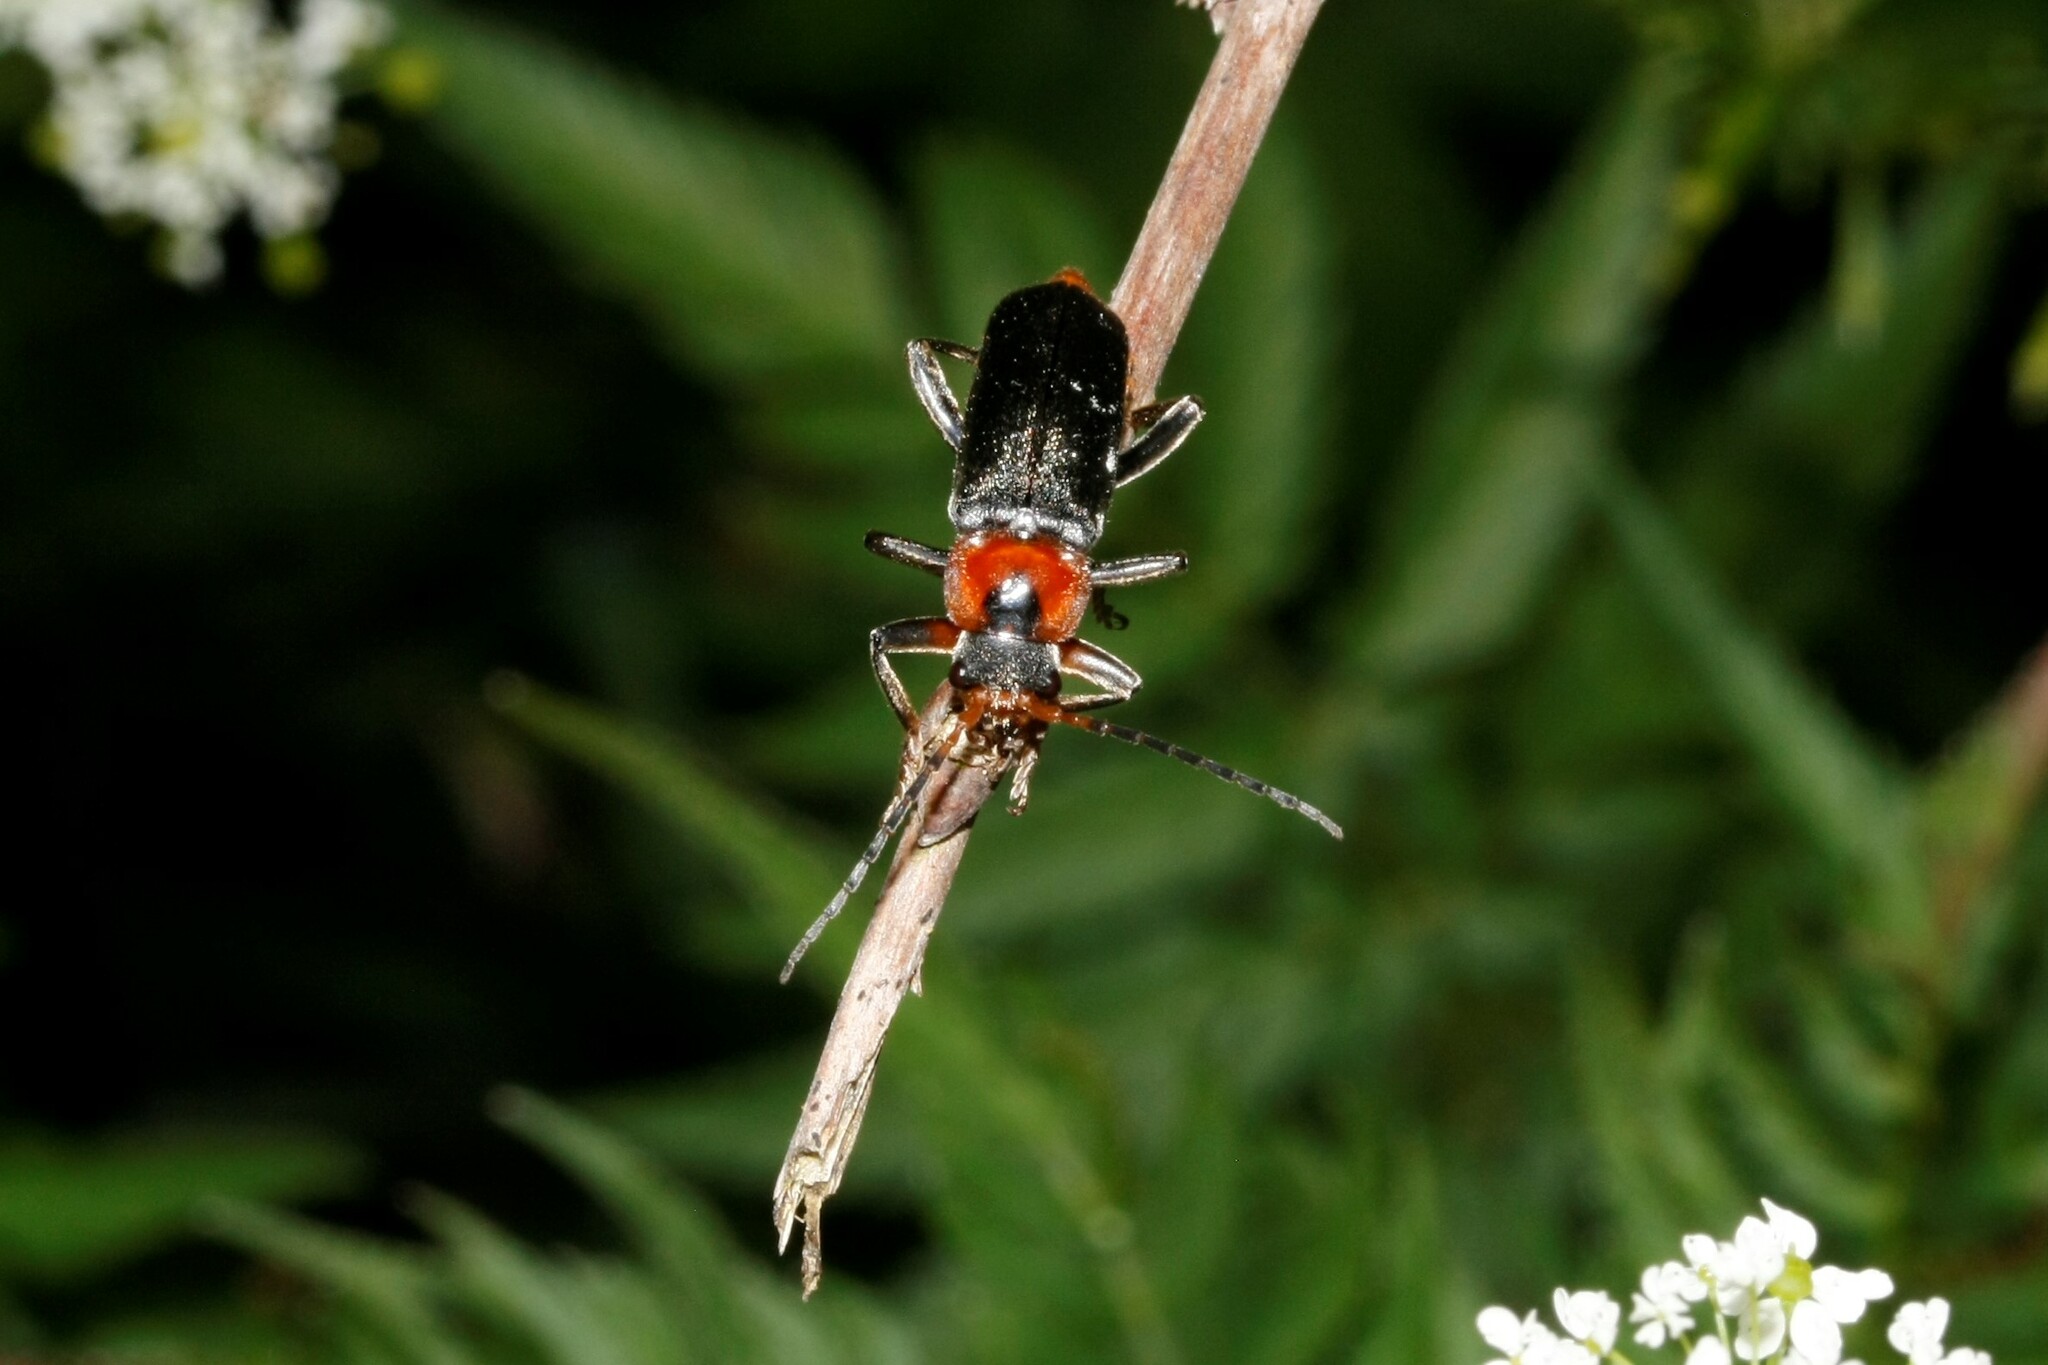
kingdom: Animalia
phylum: Arthropoda
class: Insecta
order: Coleoptera
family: Cantharidae
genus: Cantharis
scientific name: Cantharis fusca
